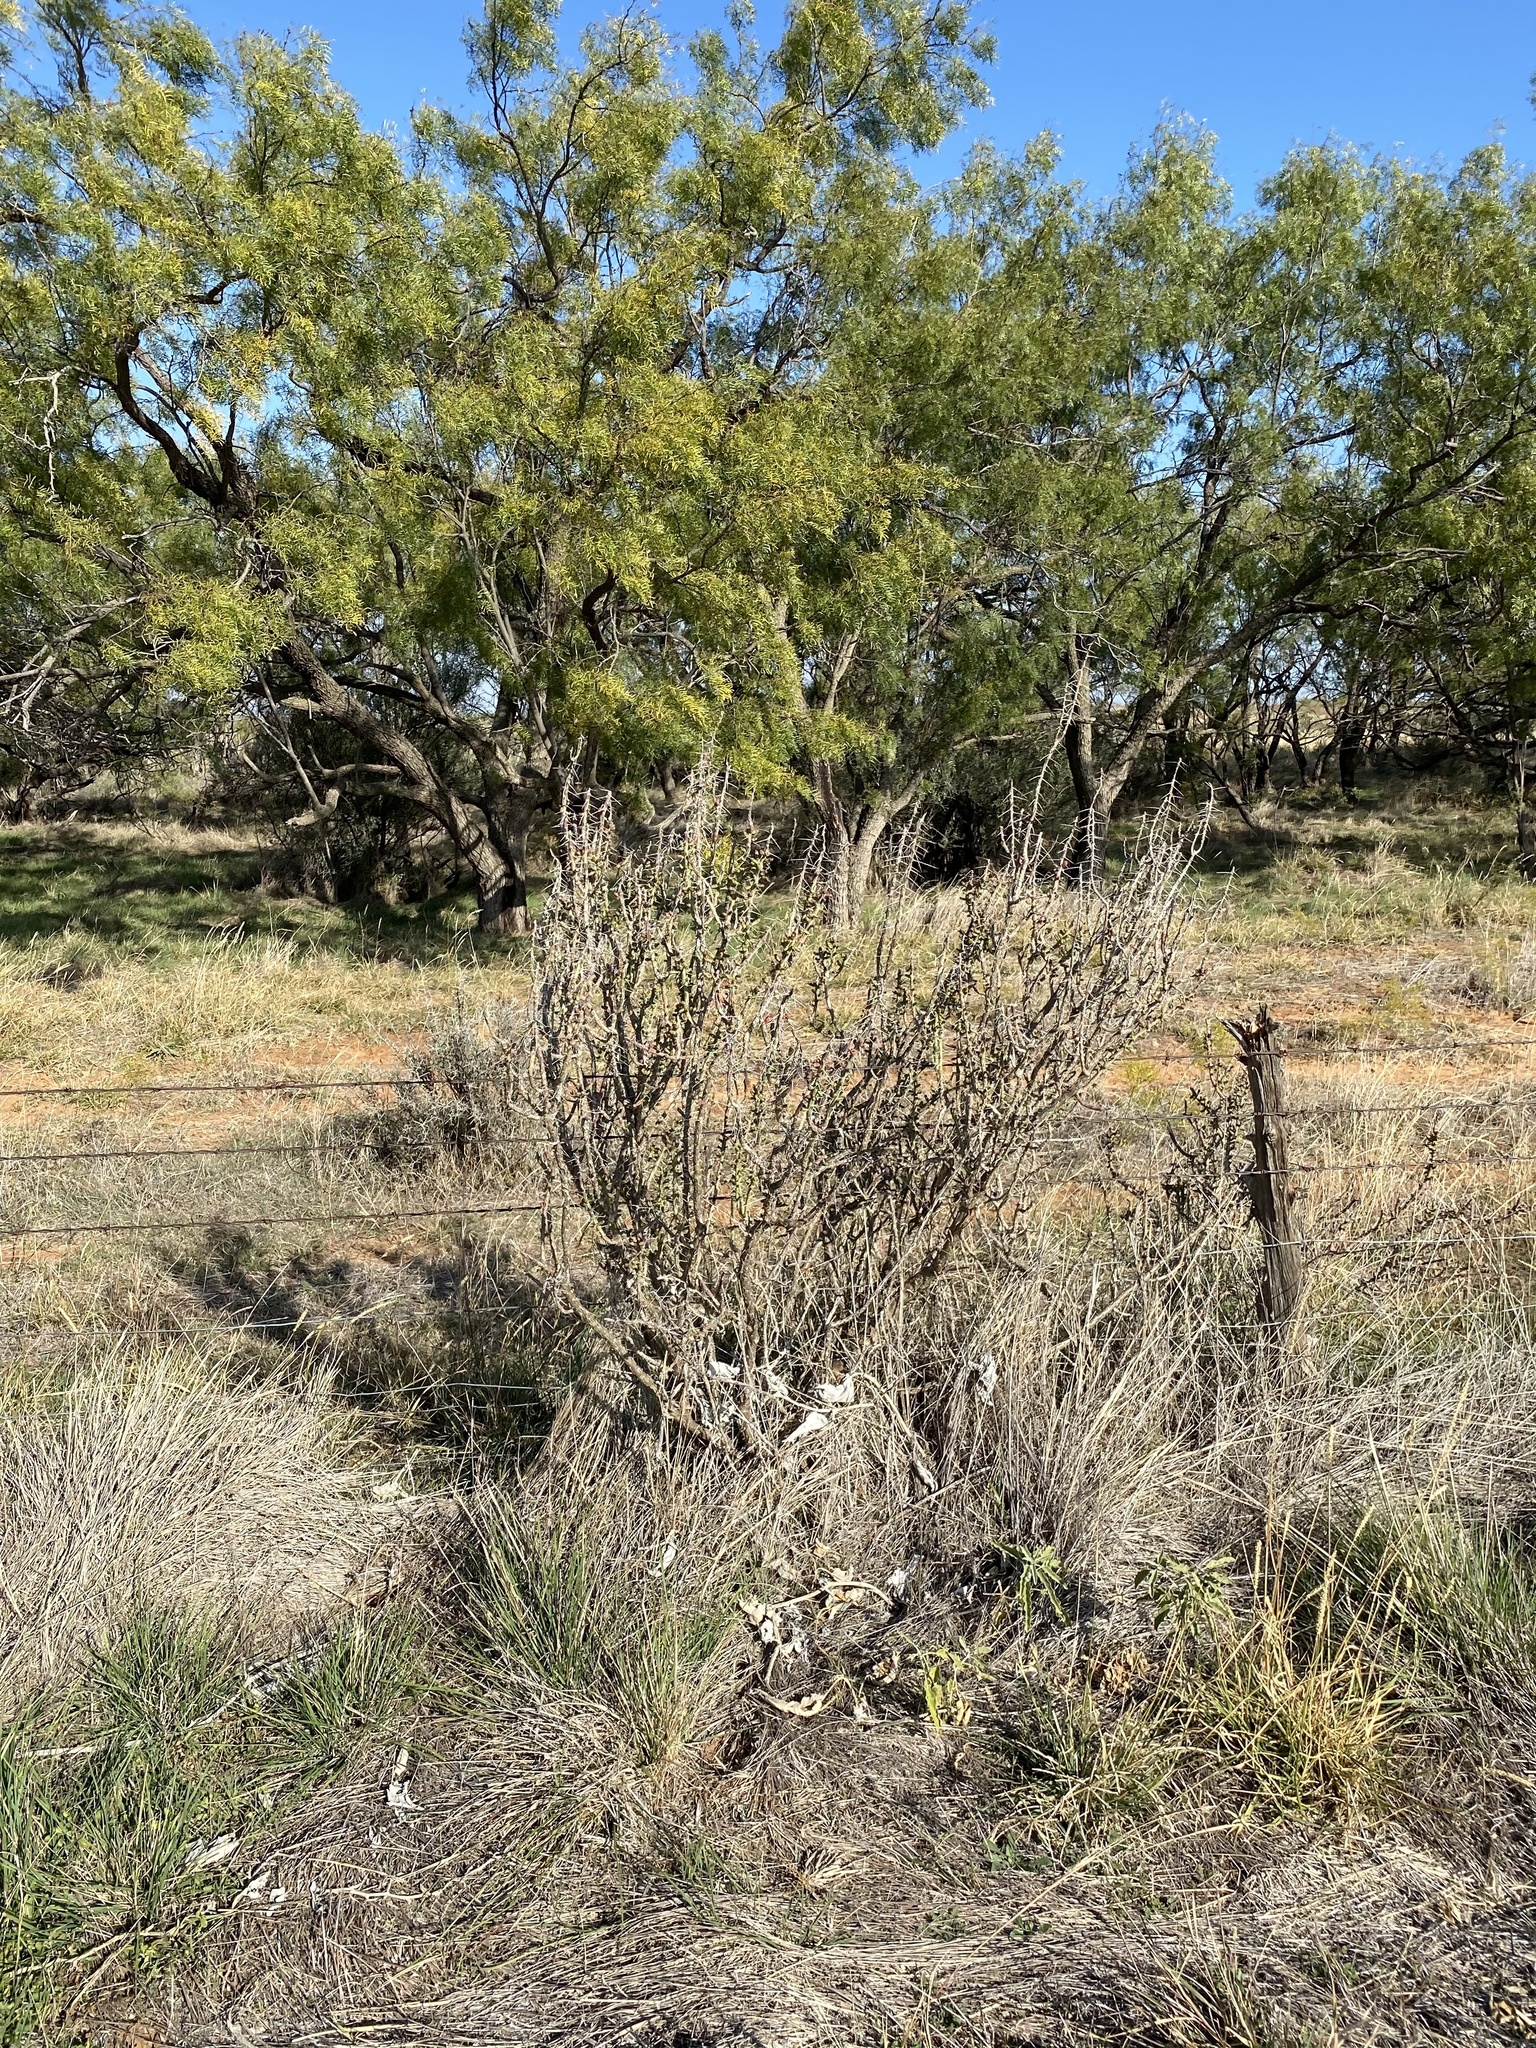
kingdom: Plantae
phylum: Tracheophyta
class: Magnoliopsida
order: Caryophyllales
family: Cactaceae
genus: Cylindropuntia
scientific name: Cylindropuntia leptocaulis
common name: Christmas cactus
